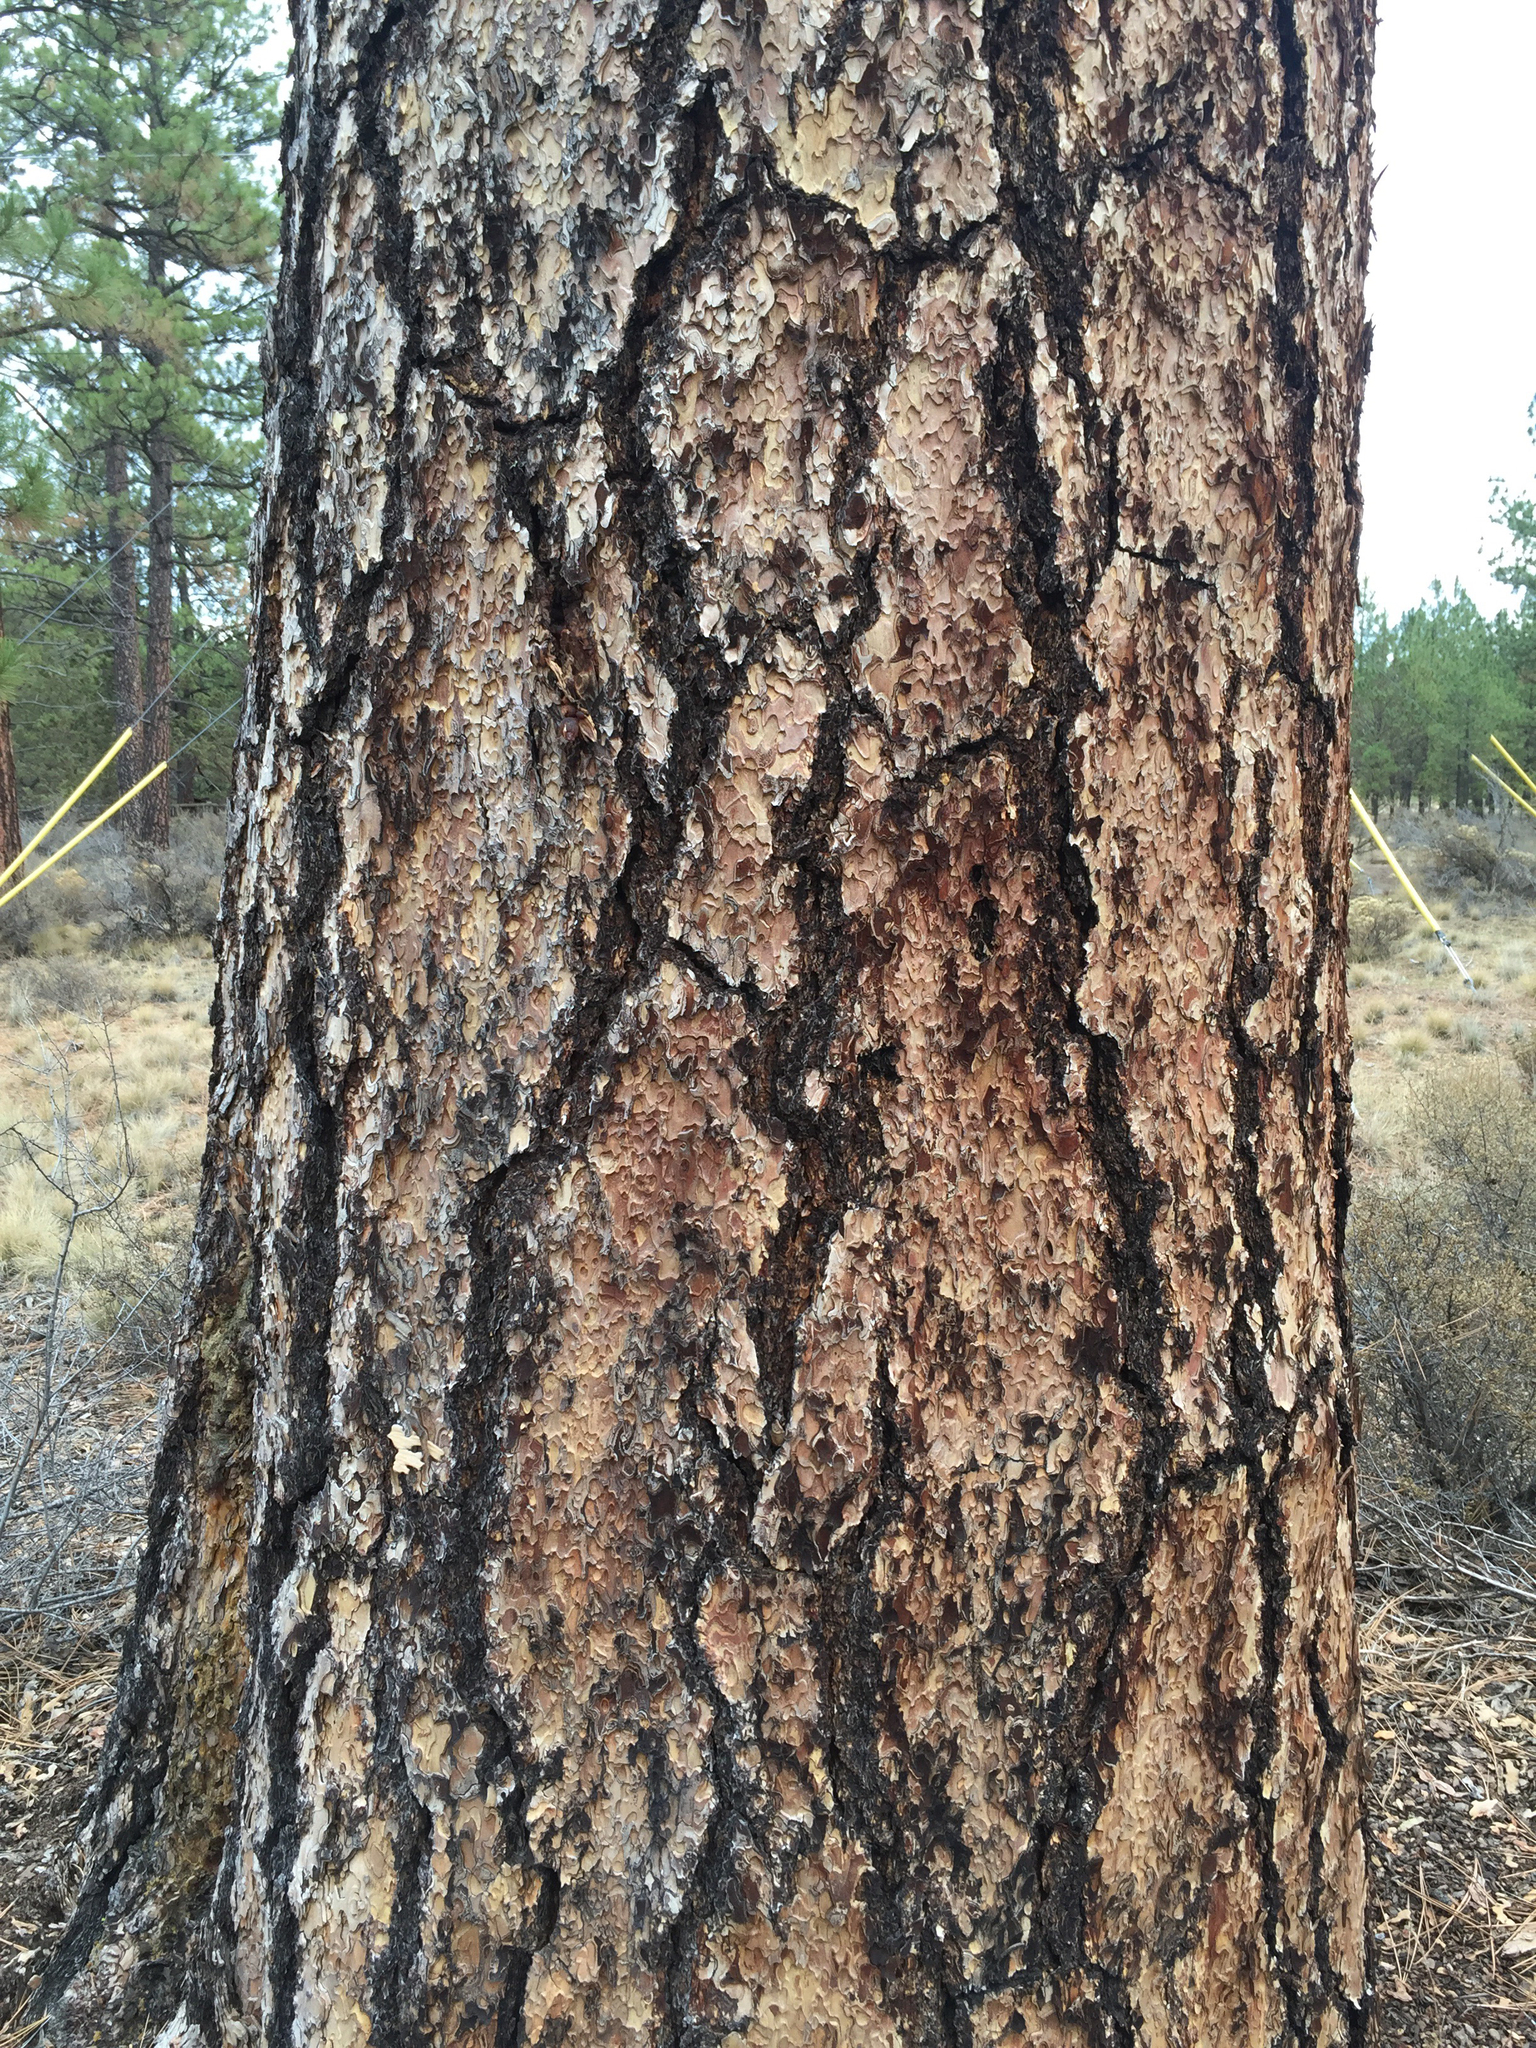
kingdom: Plantae
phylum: Tracheophyta
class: Pinopsida
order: Pinales
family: Pinaceae
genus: Pinus
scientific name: Pinus ponderosa
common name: Western yellow-pine
